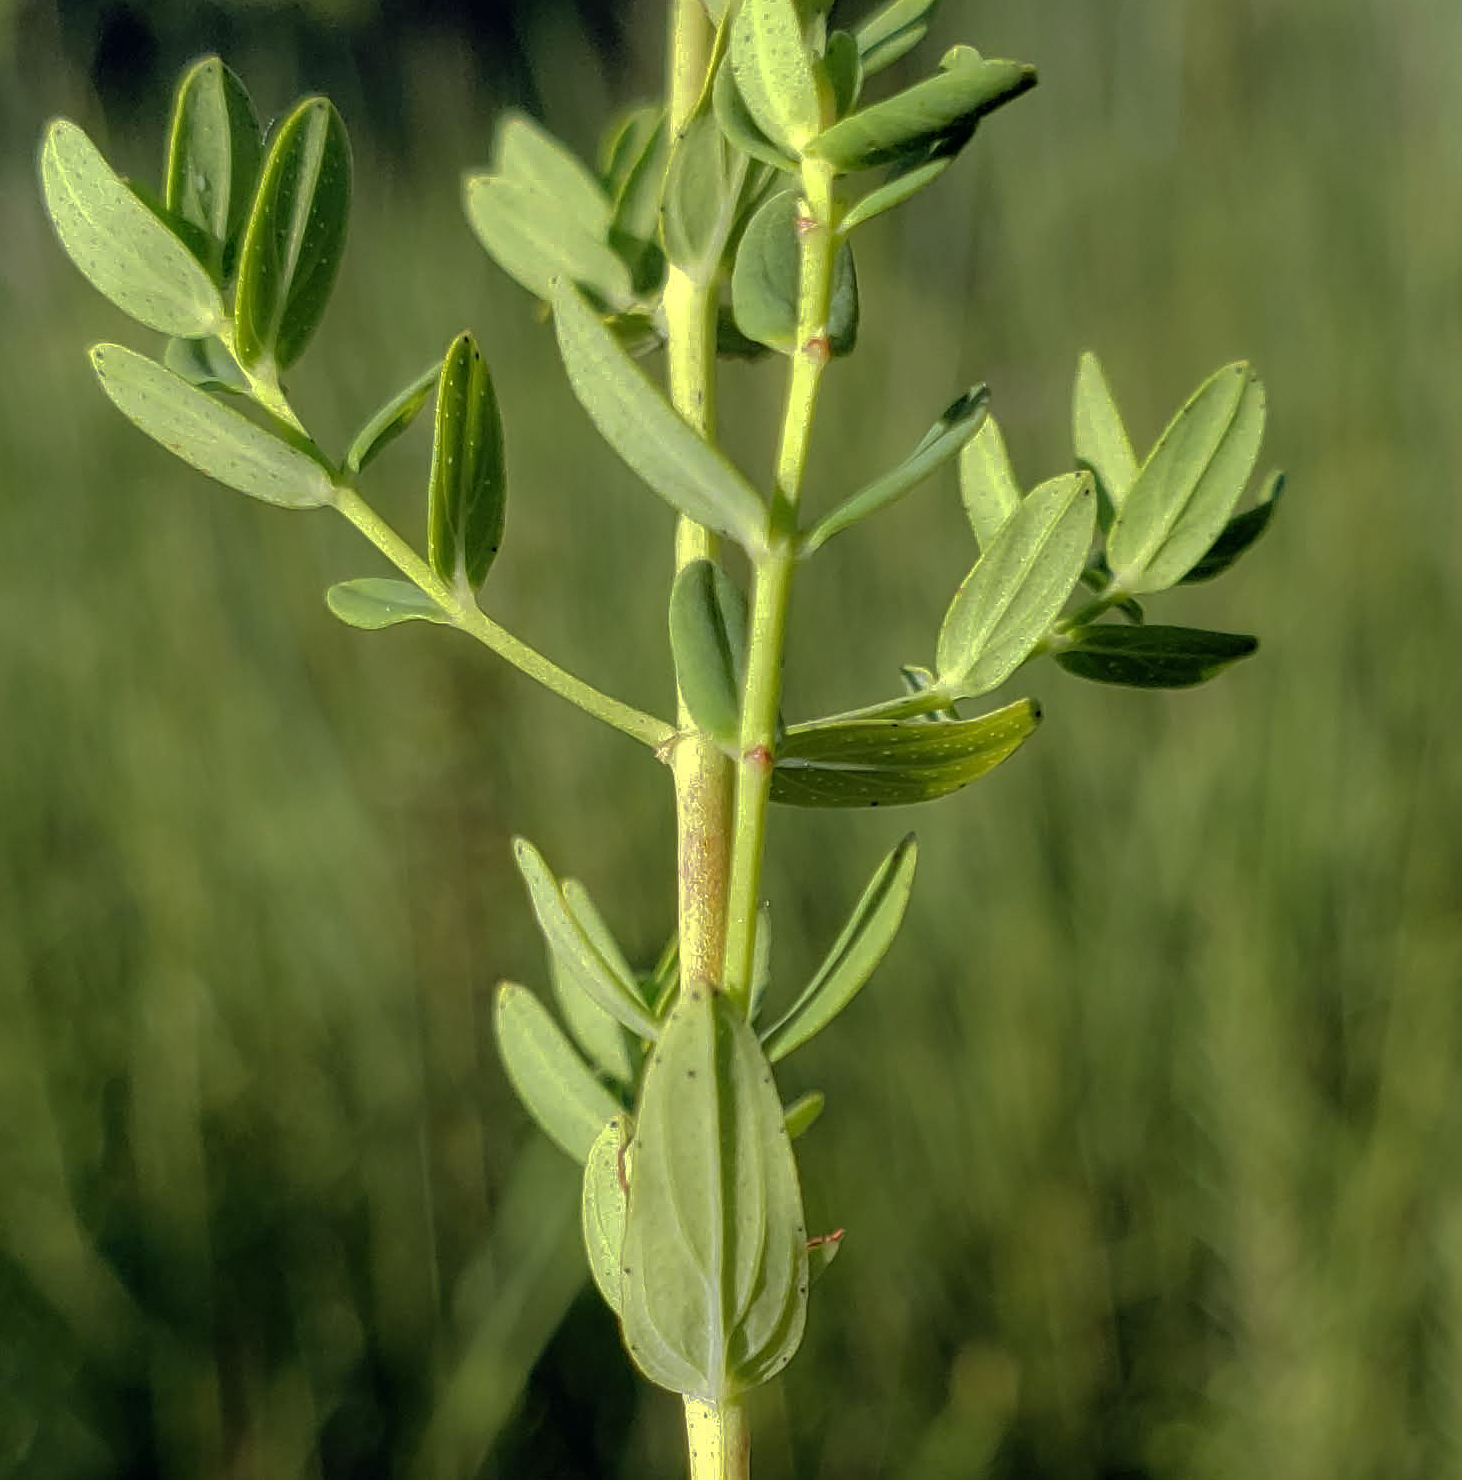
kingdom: Plantae
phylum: Tracheophyta
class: Magnoliopsida
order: Malpighiales
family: Hypericaceae
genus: Hypericum
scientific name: Hypericum perforatum
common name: Common st. johnswort
